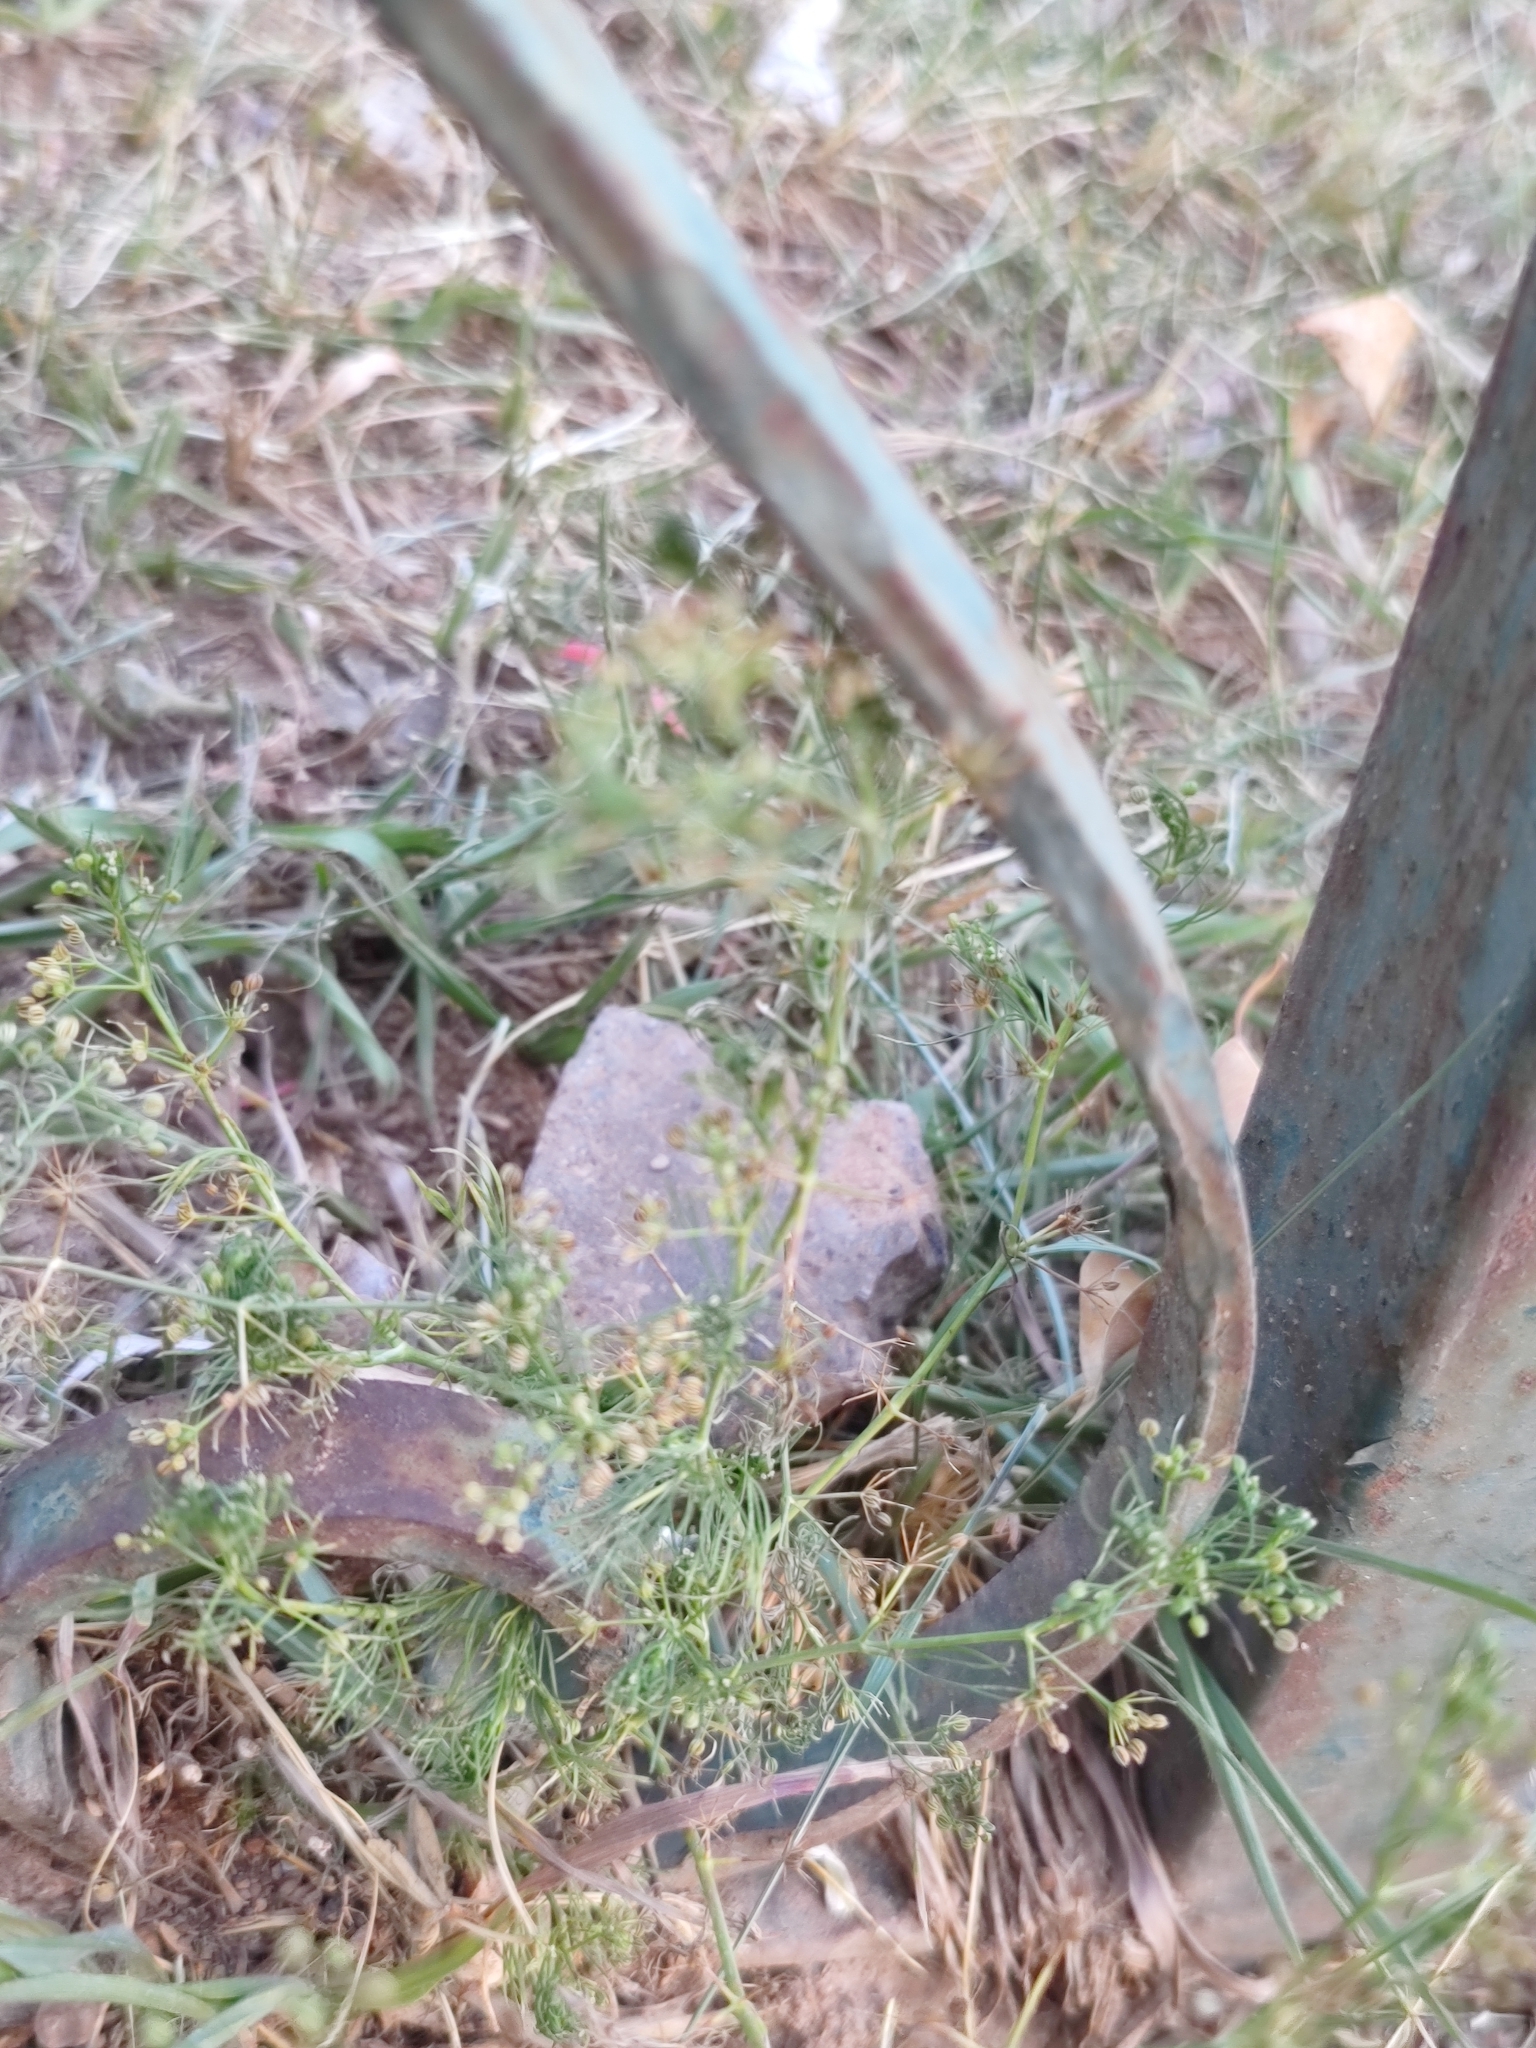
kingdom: Plantae
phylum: Tracheophyta
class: Magnoliopsida
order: Apiales
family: Apiaceae
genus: Cyclospermum
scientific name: Cyclospermum leptophyllum
